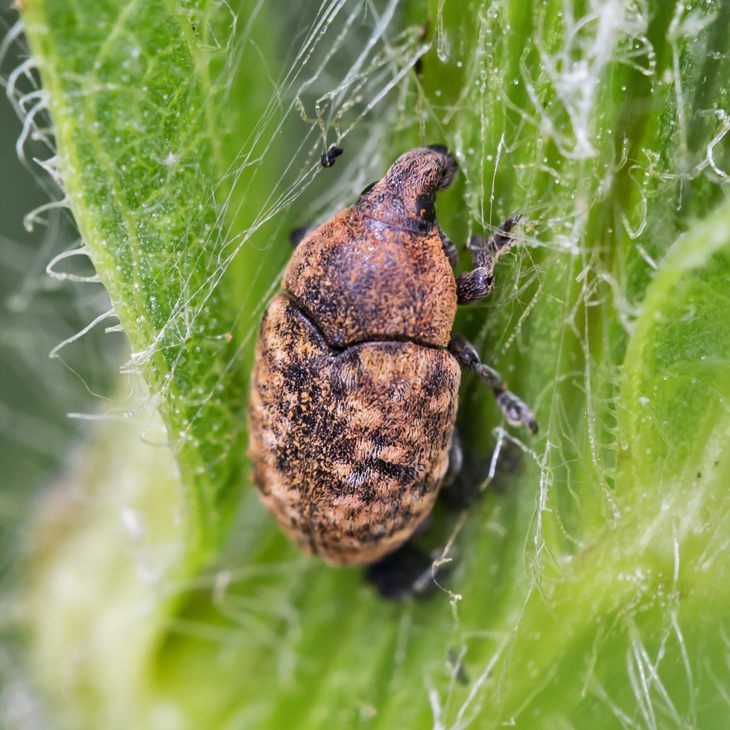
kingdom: Animalia
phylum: Arthropoda
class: Insecta
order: Coleoptera
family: Curculionidae
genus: Larinus
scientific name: Larinus obtusus
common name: Weevil
